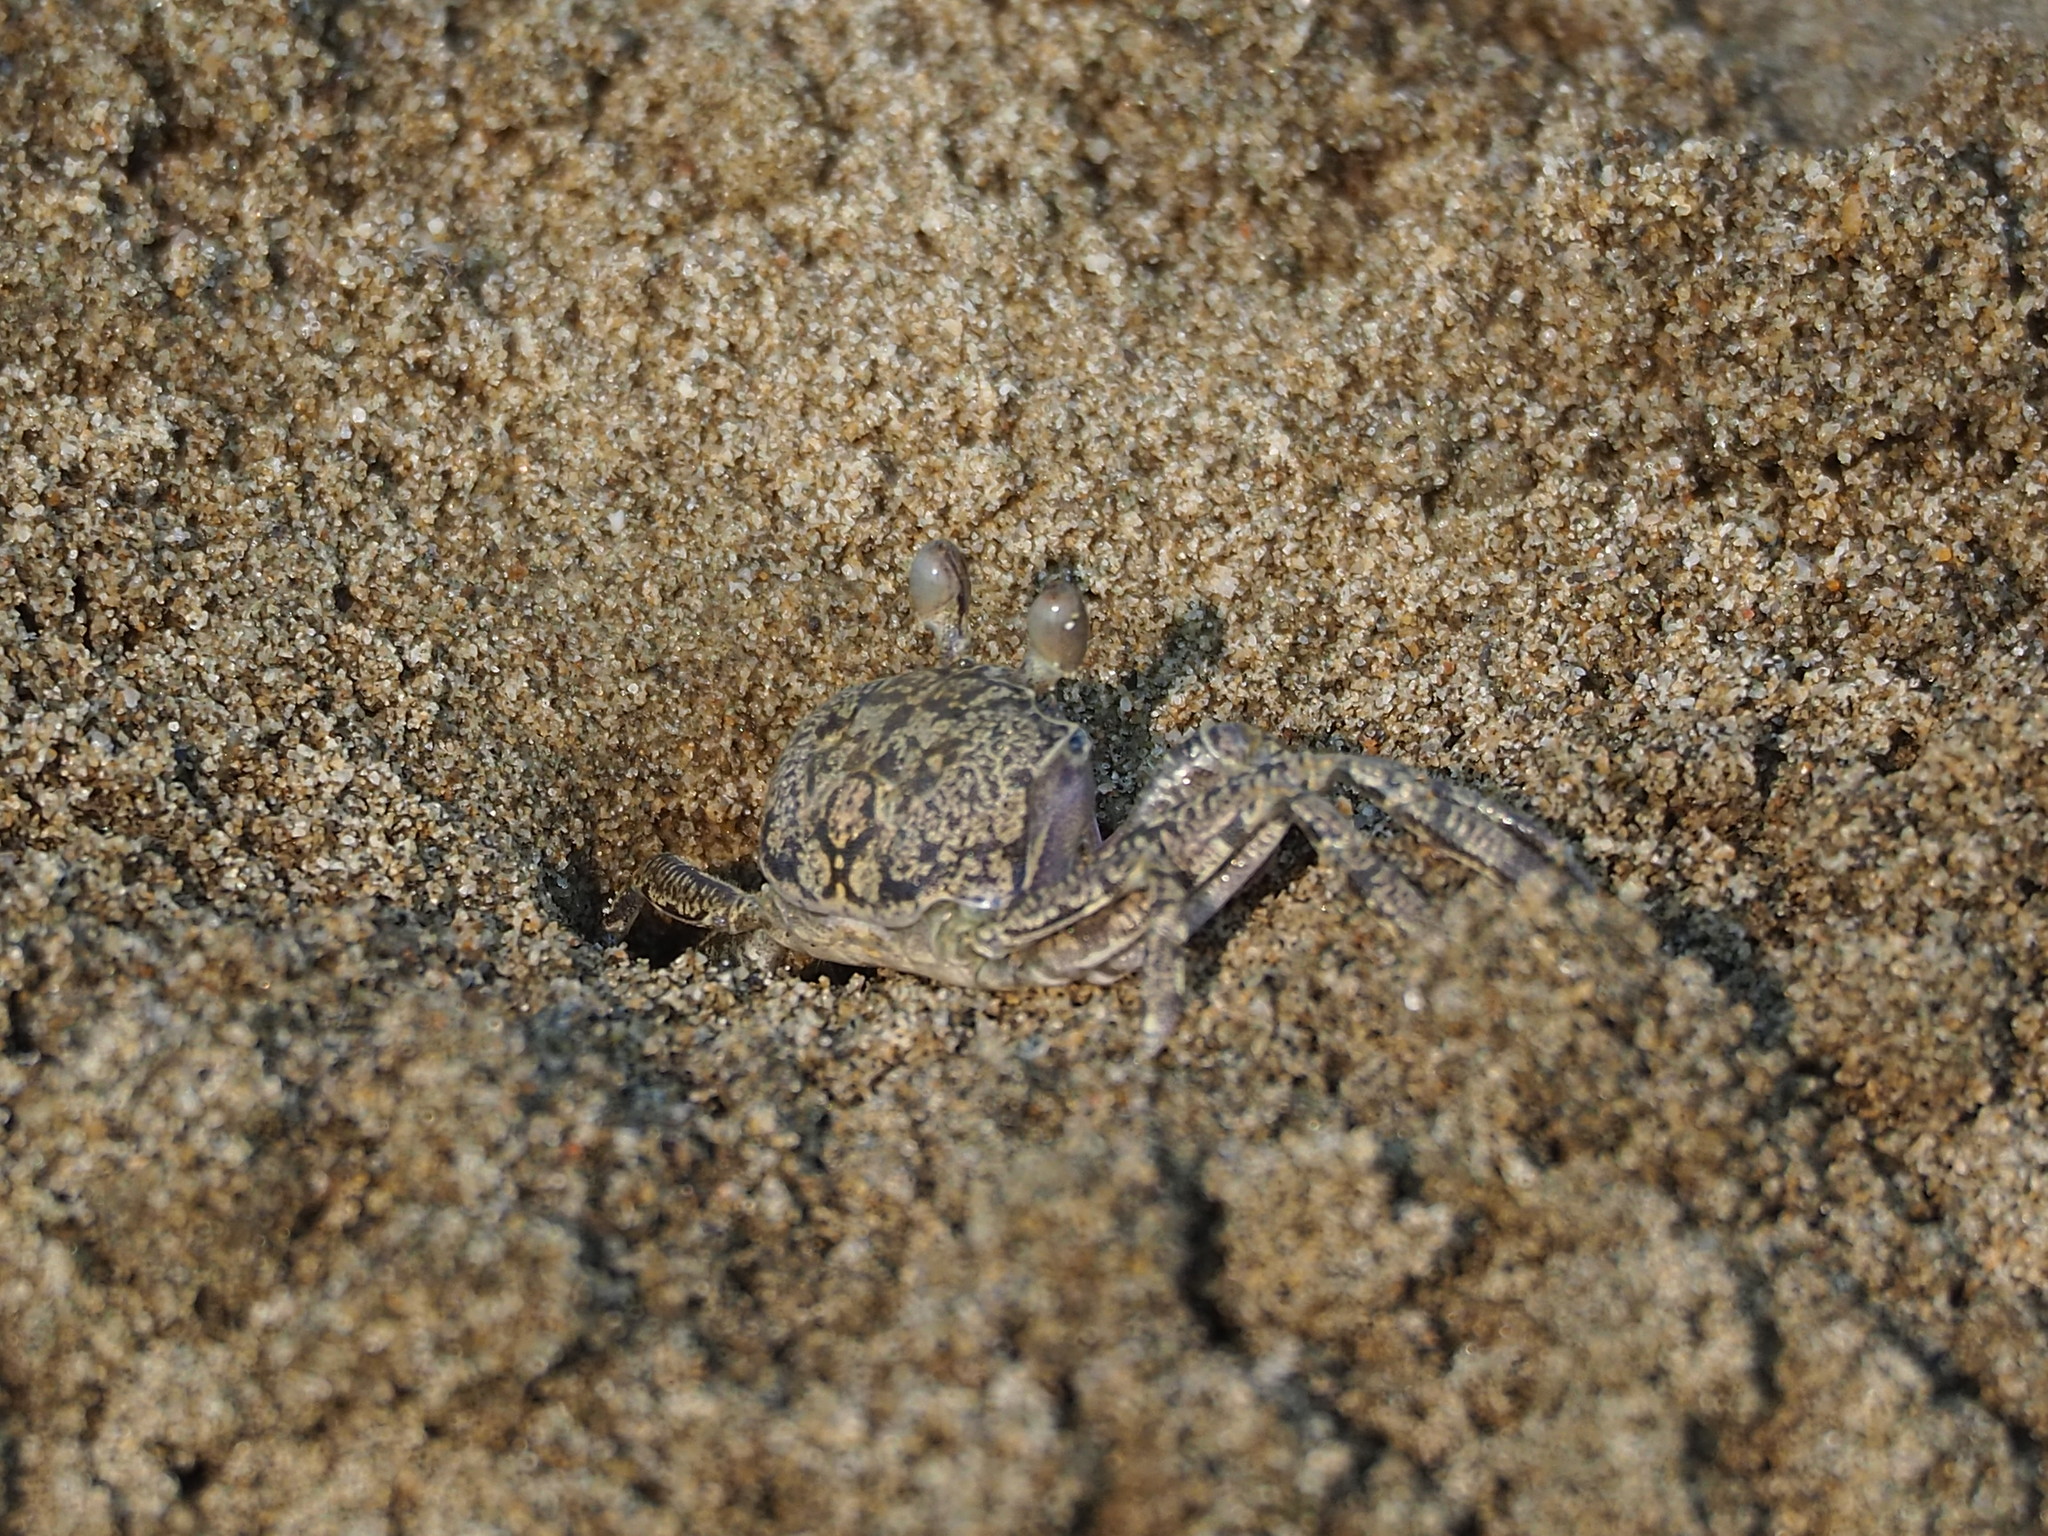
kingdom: Animalia
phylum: Arthropoda
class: Malacostraca
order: Decapoda
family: Ocypodidae
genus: Ocypode
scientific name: Ocypode ceratophthalmus
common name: Indo-pacific ghost crab
